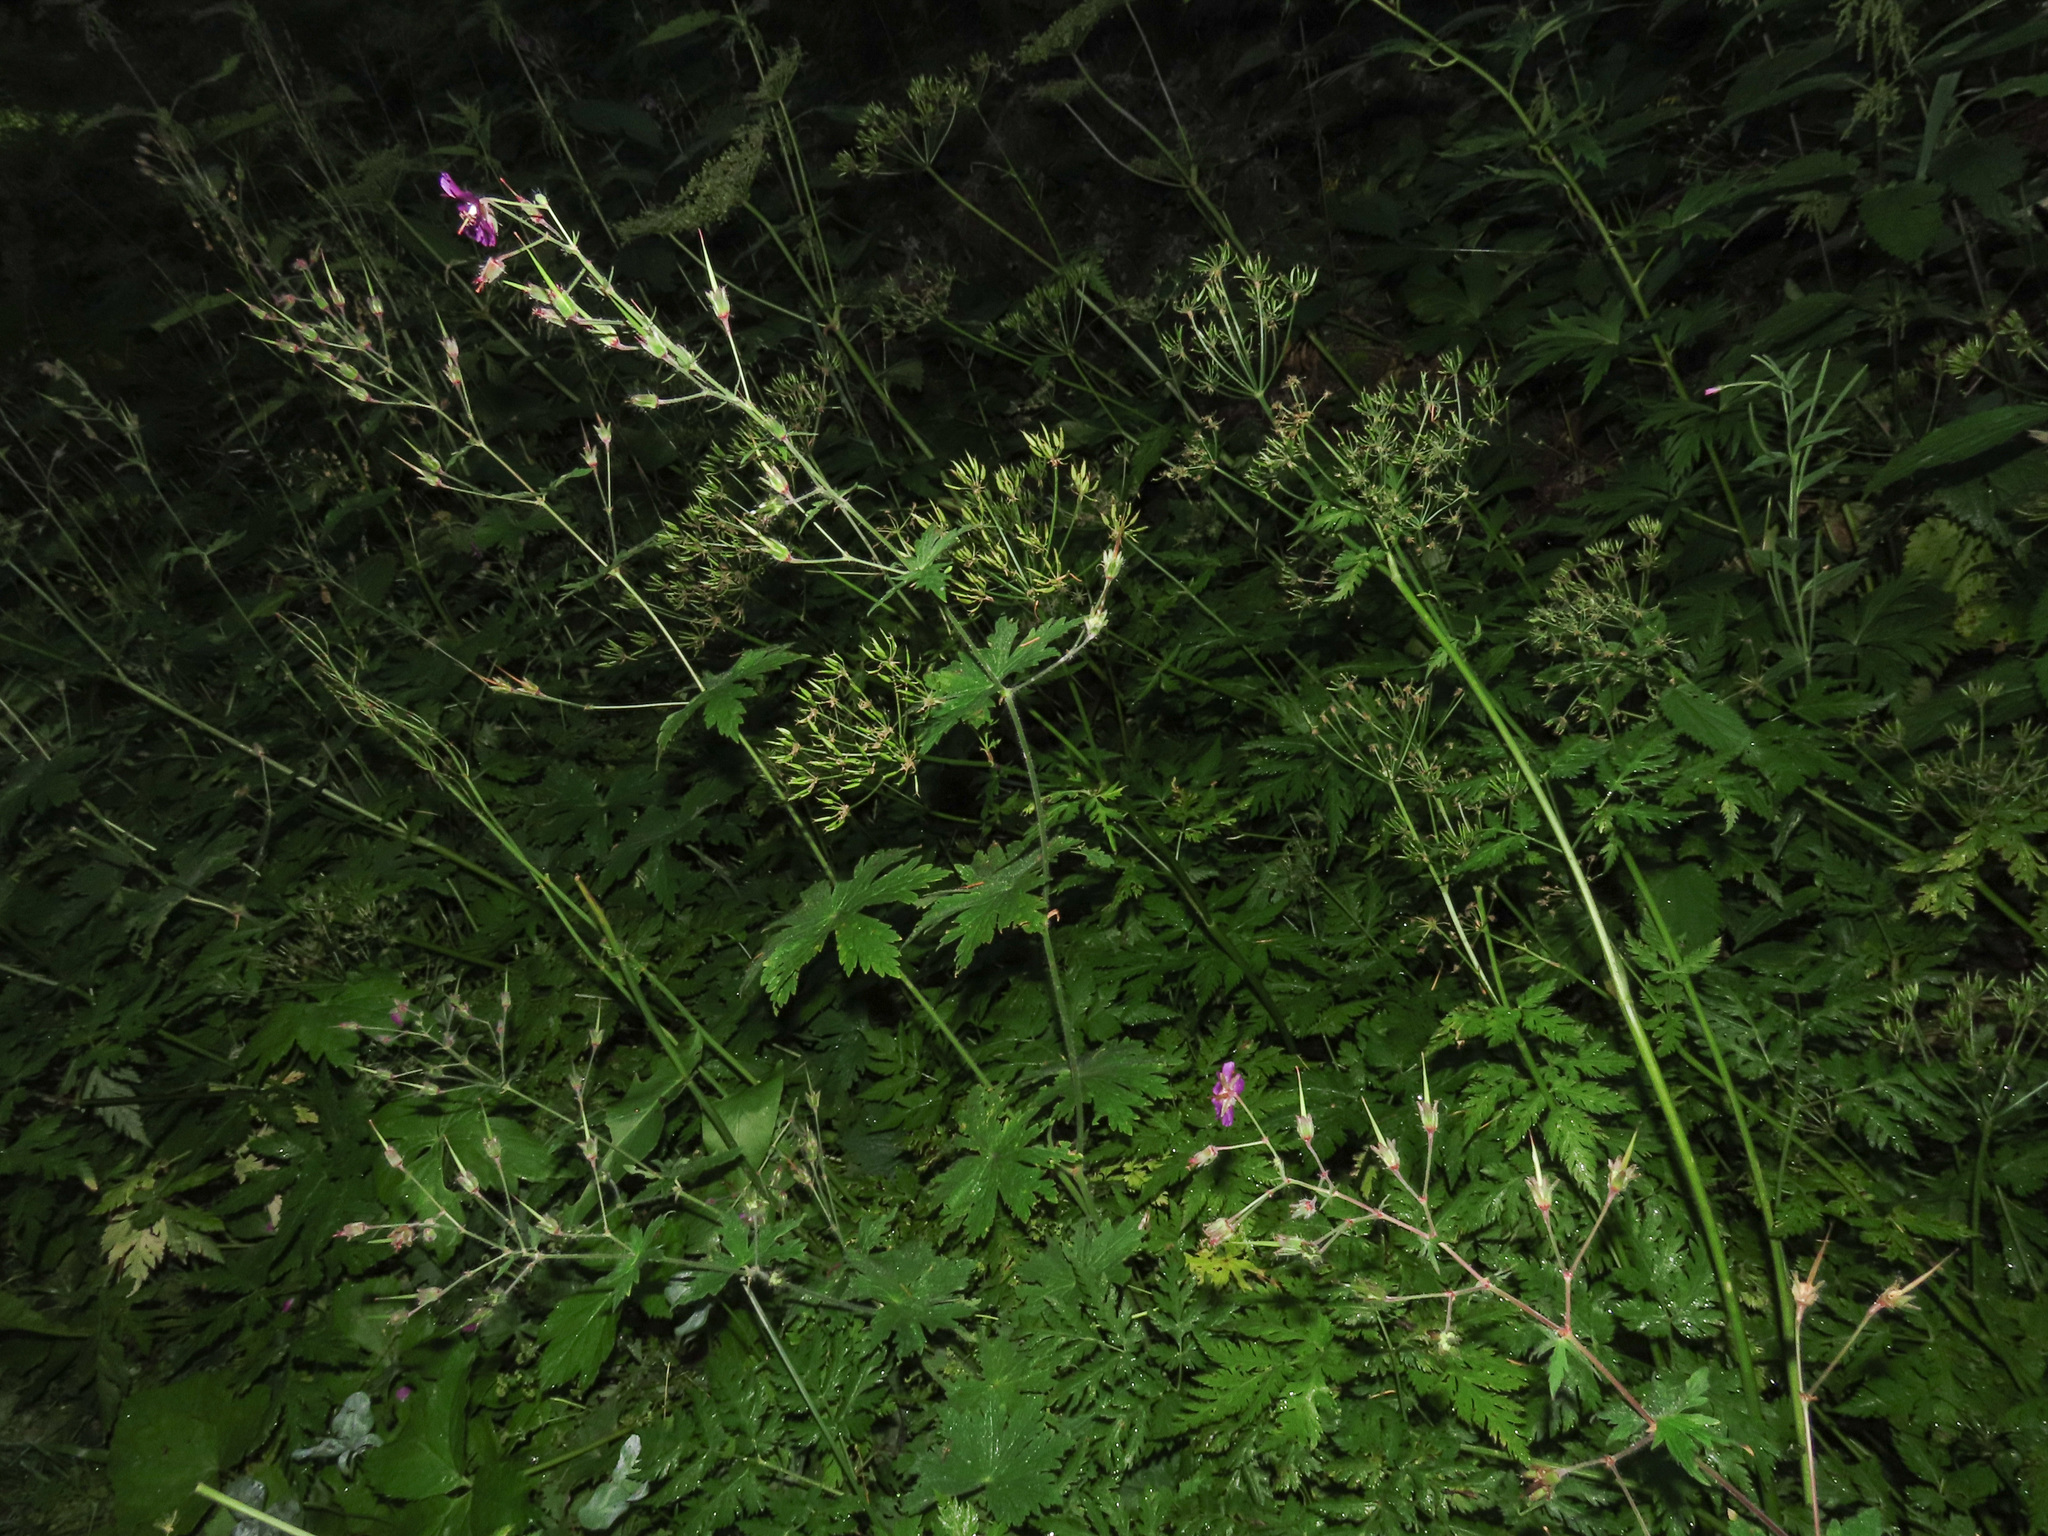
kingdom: Plantae
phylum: Tracheophyta
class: Magnoliopsida
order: Geraniales
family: Geraniaceae
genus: Geranium
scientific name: Geranium phaeum
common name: Dusky crane's-bill
